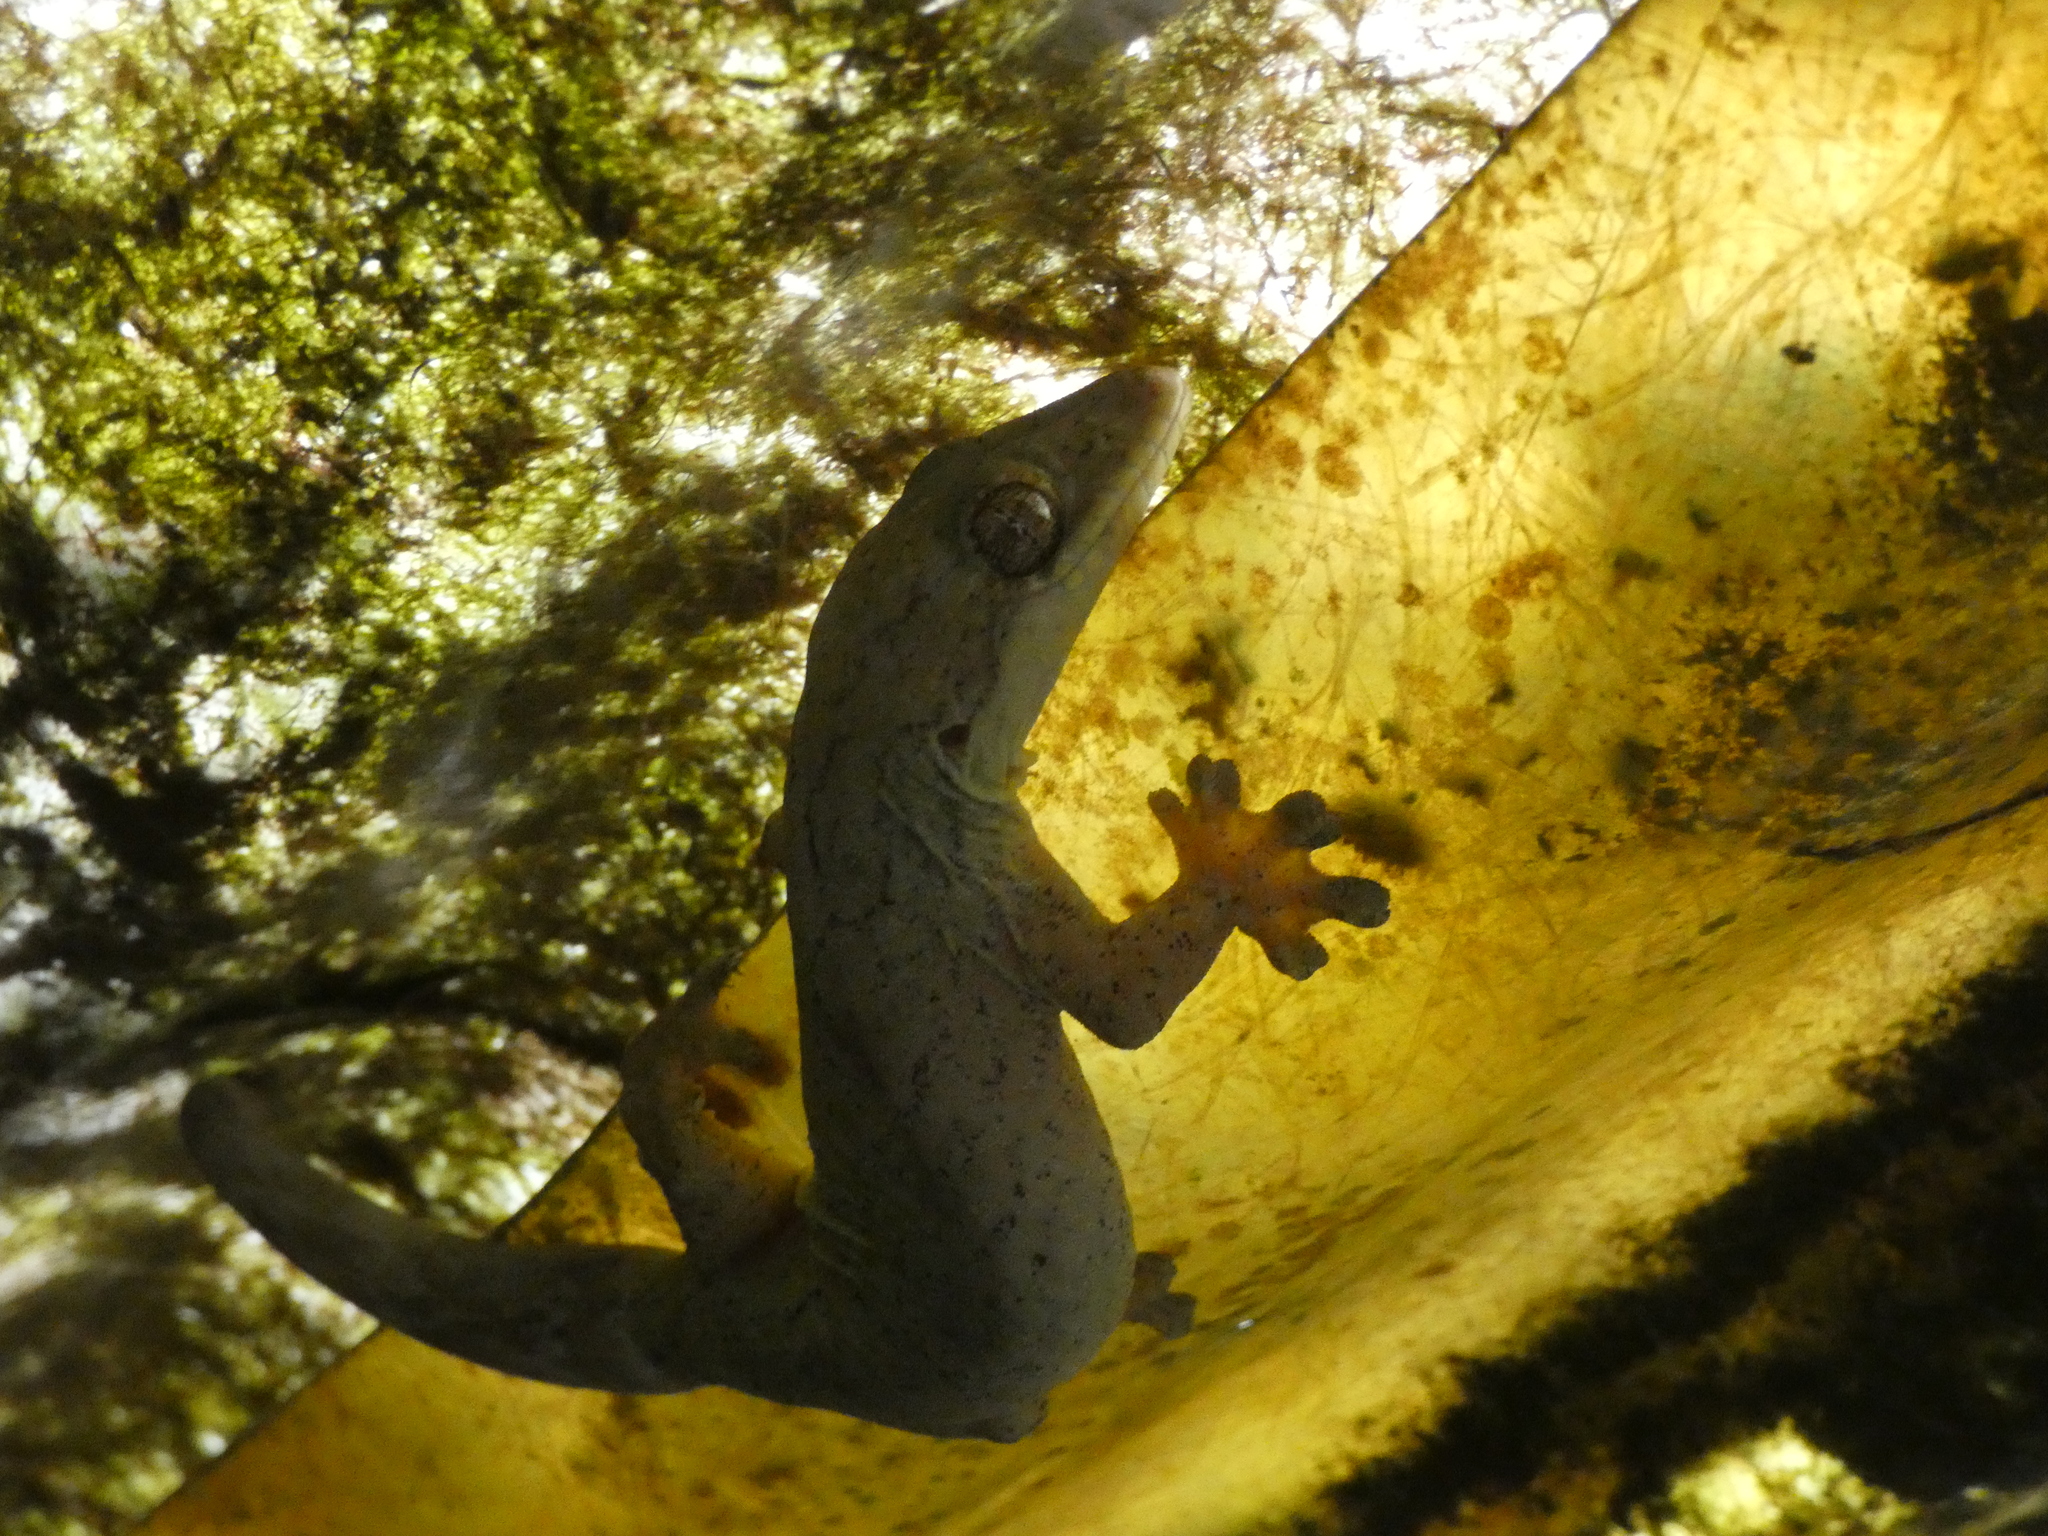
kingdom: Animalia
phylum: Chordata
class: Squamata
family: Phyllodactylidae
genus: Thecadactylus
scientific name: Thecadactylus solimoensis
